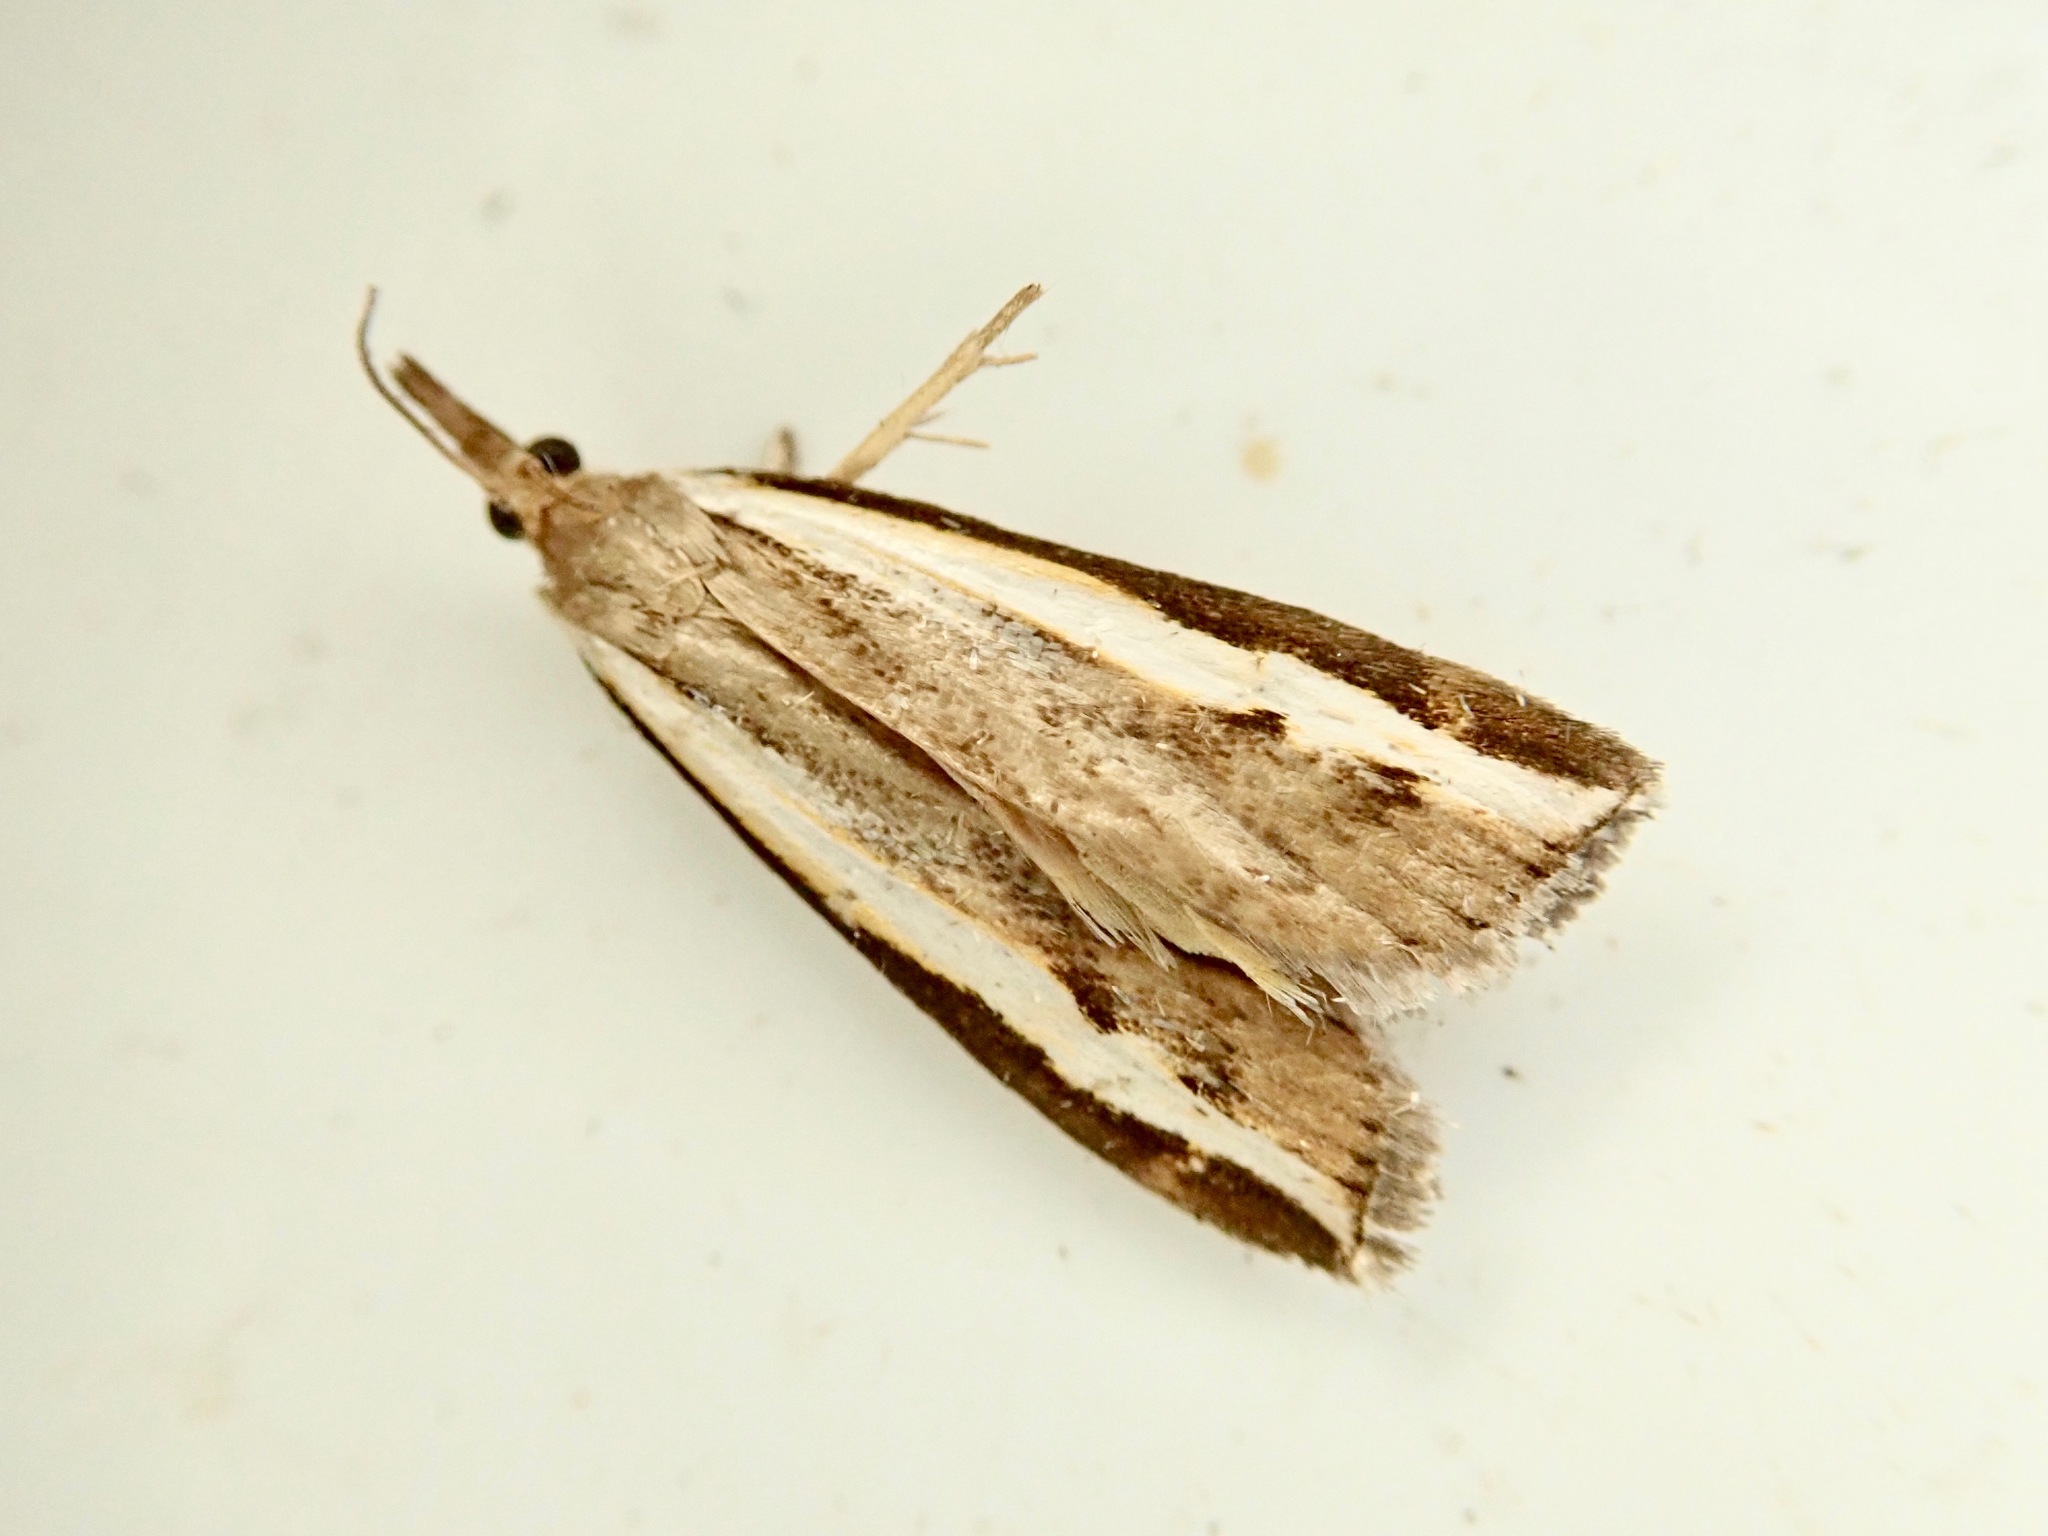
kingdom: Animalia
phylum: Arthropoda
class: Insecta
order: Lepidoptera
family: Crambidae
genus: Orocrambus
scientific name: Orocrambus flexuosellus
